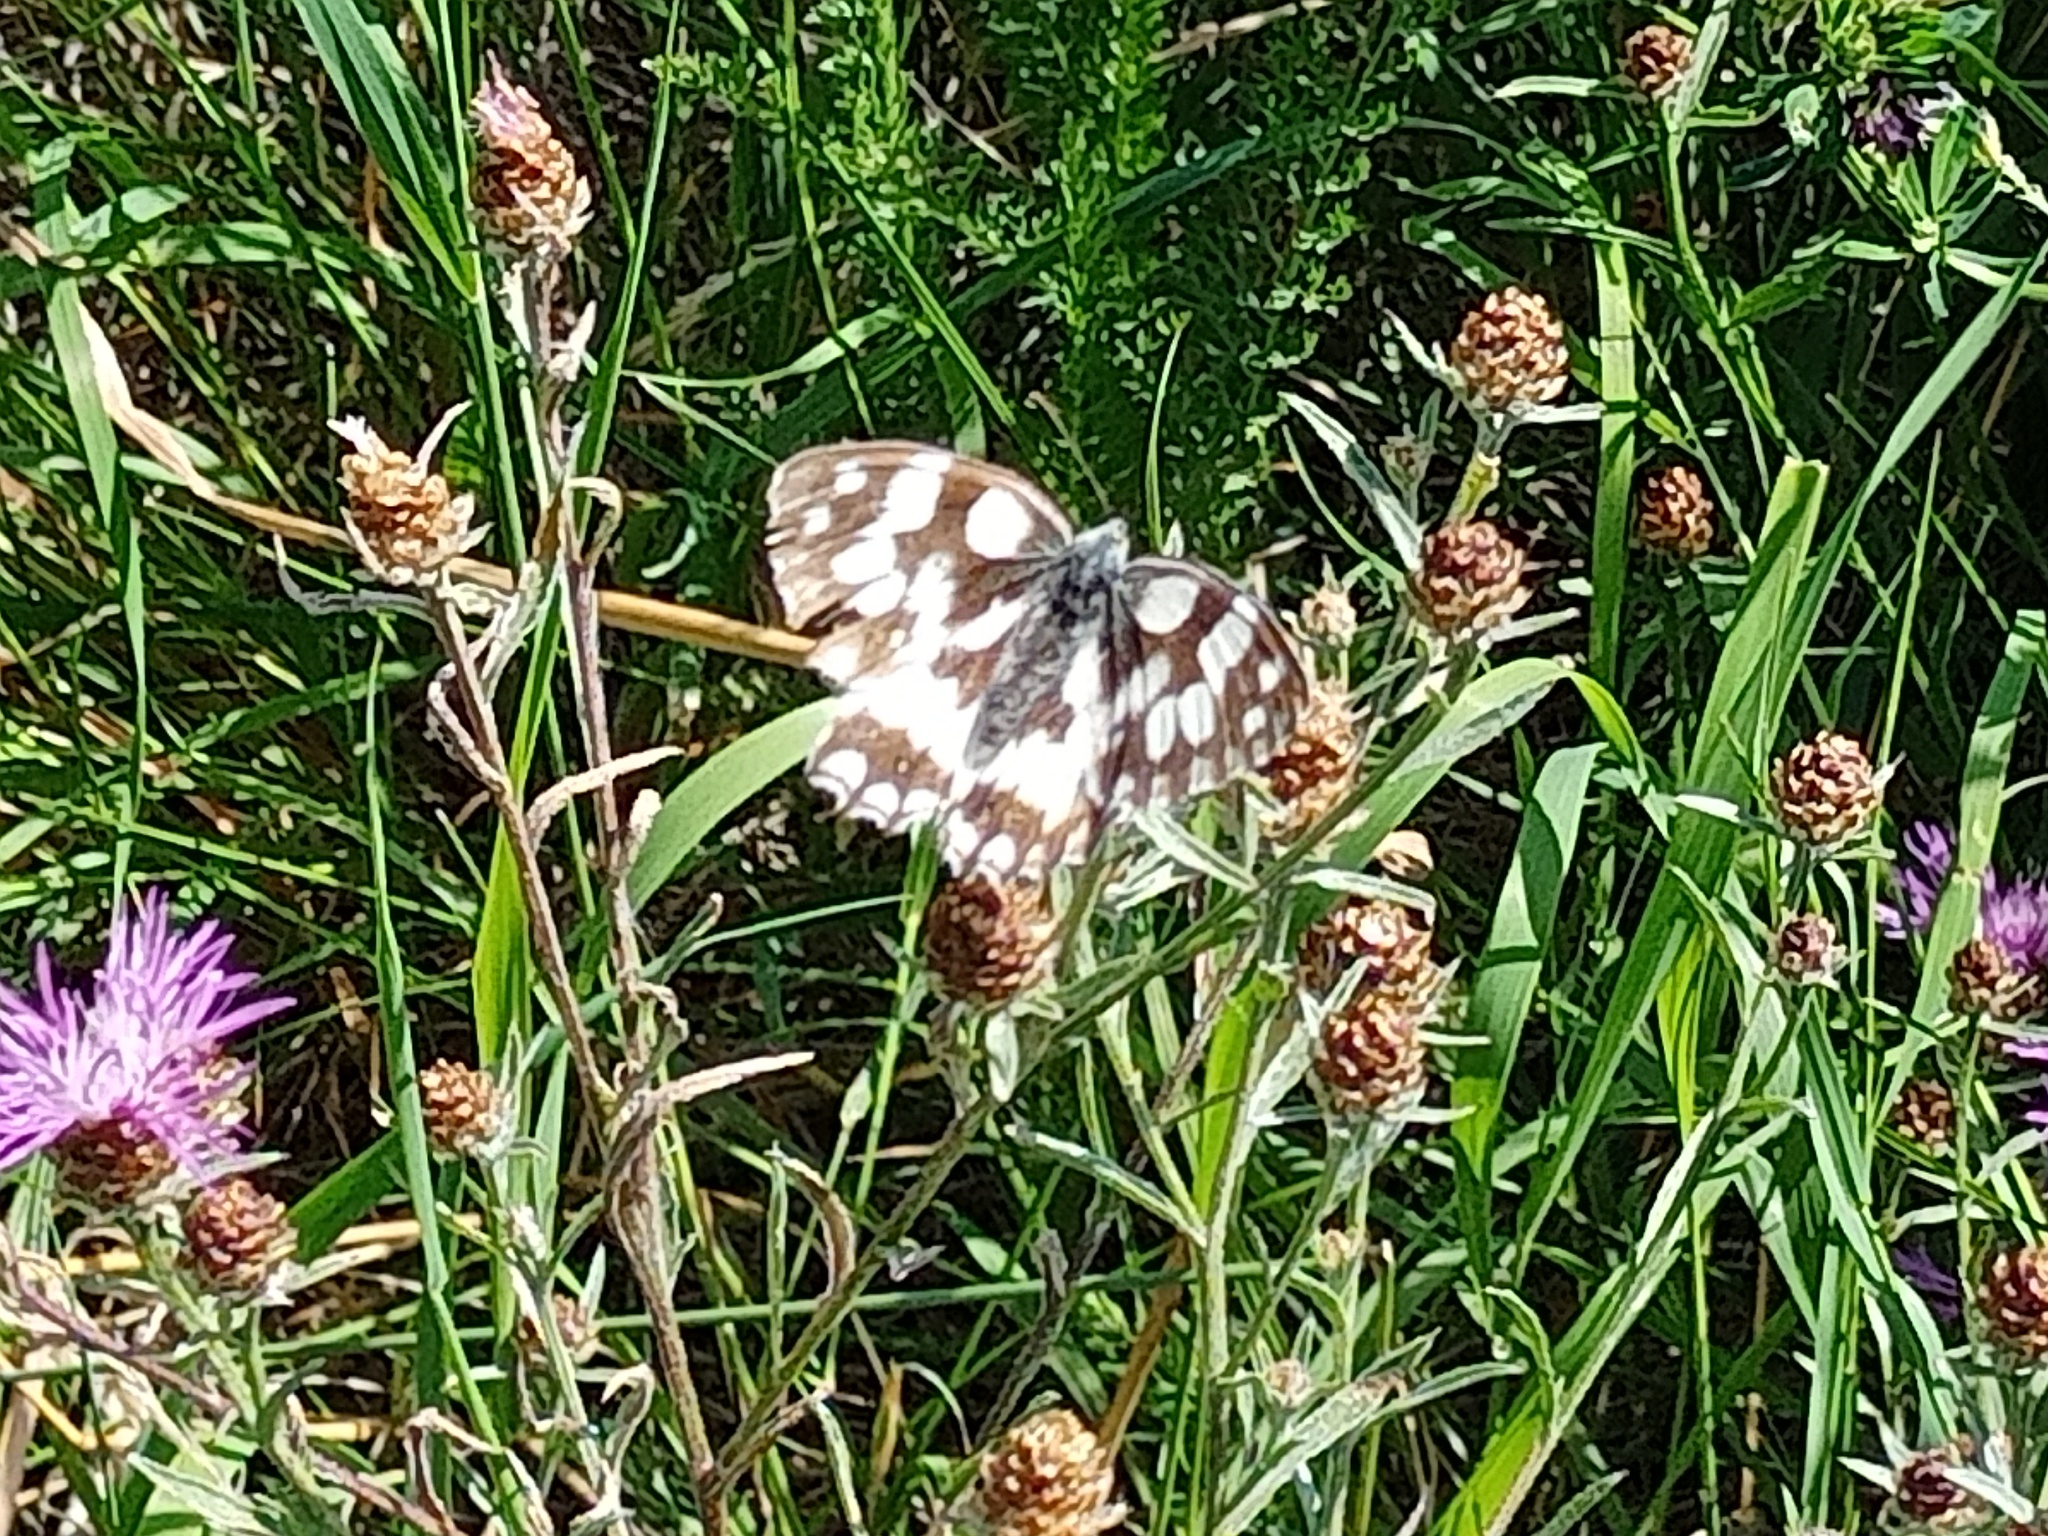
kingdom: Animalia
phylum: Arthropoda
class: Insecta
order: Lepidoptera
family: Nymphalidae
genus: Melanargia
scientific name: Melanargia galathea
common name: Marbled white
